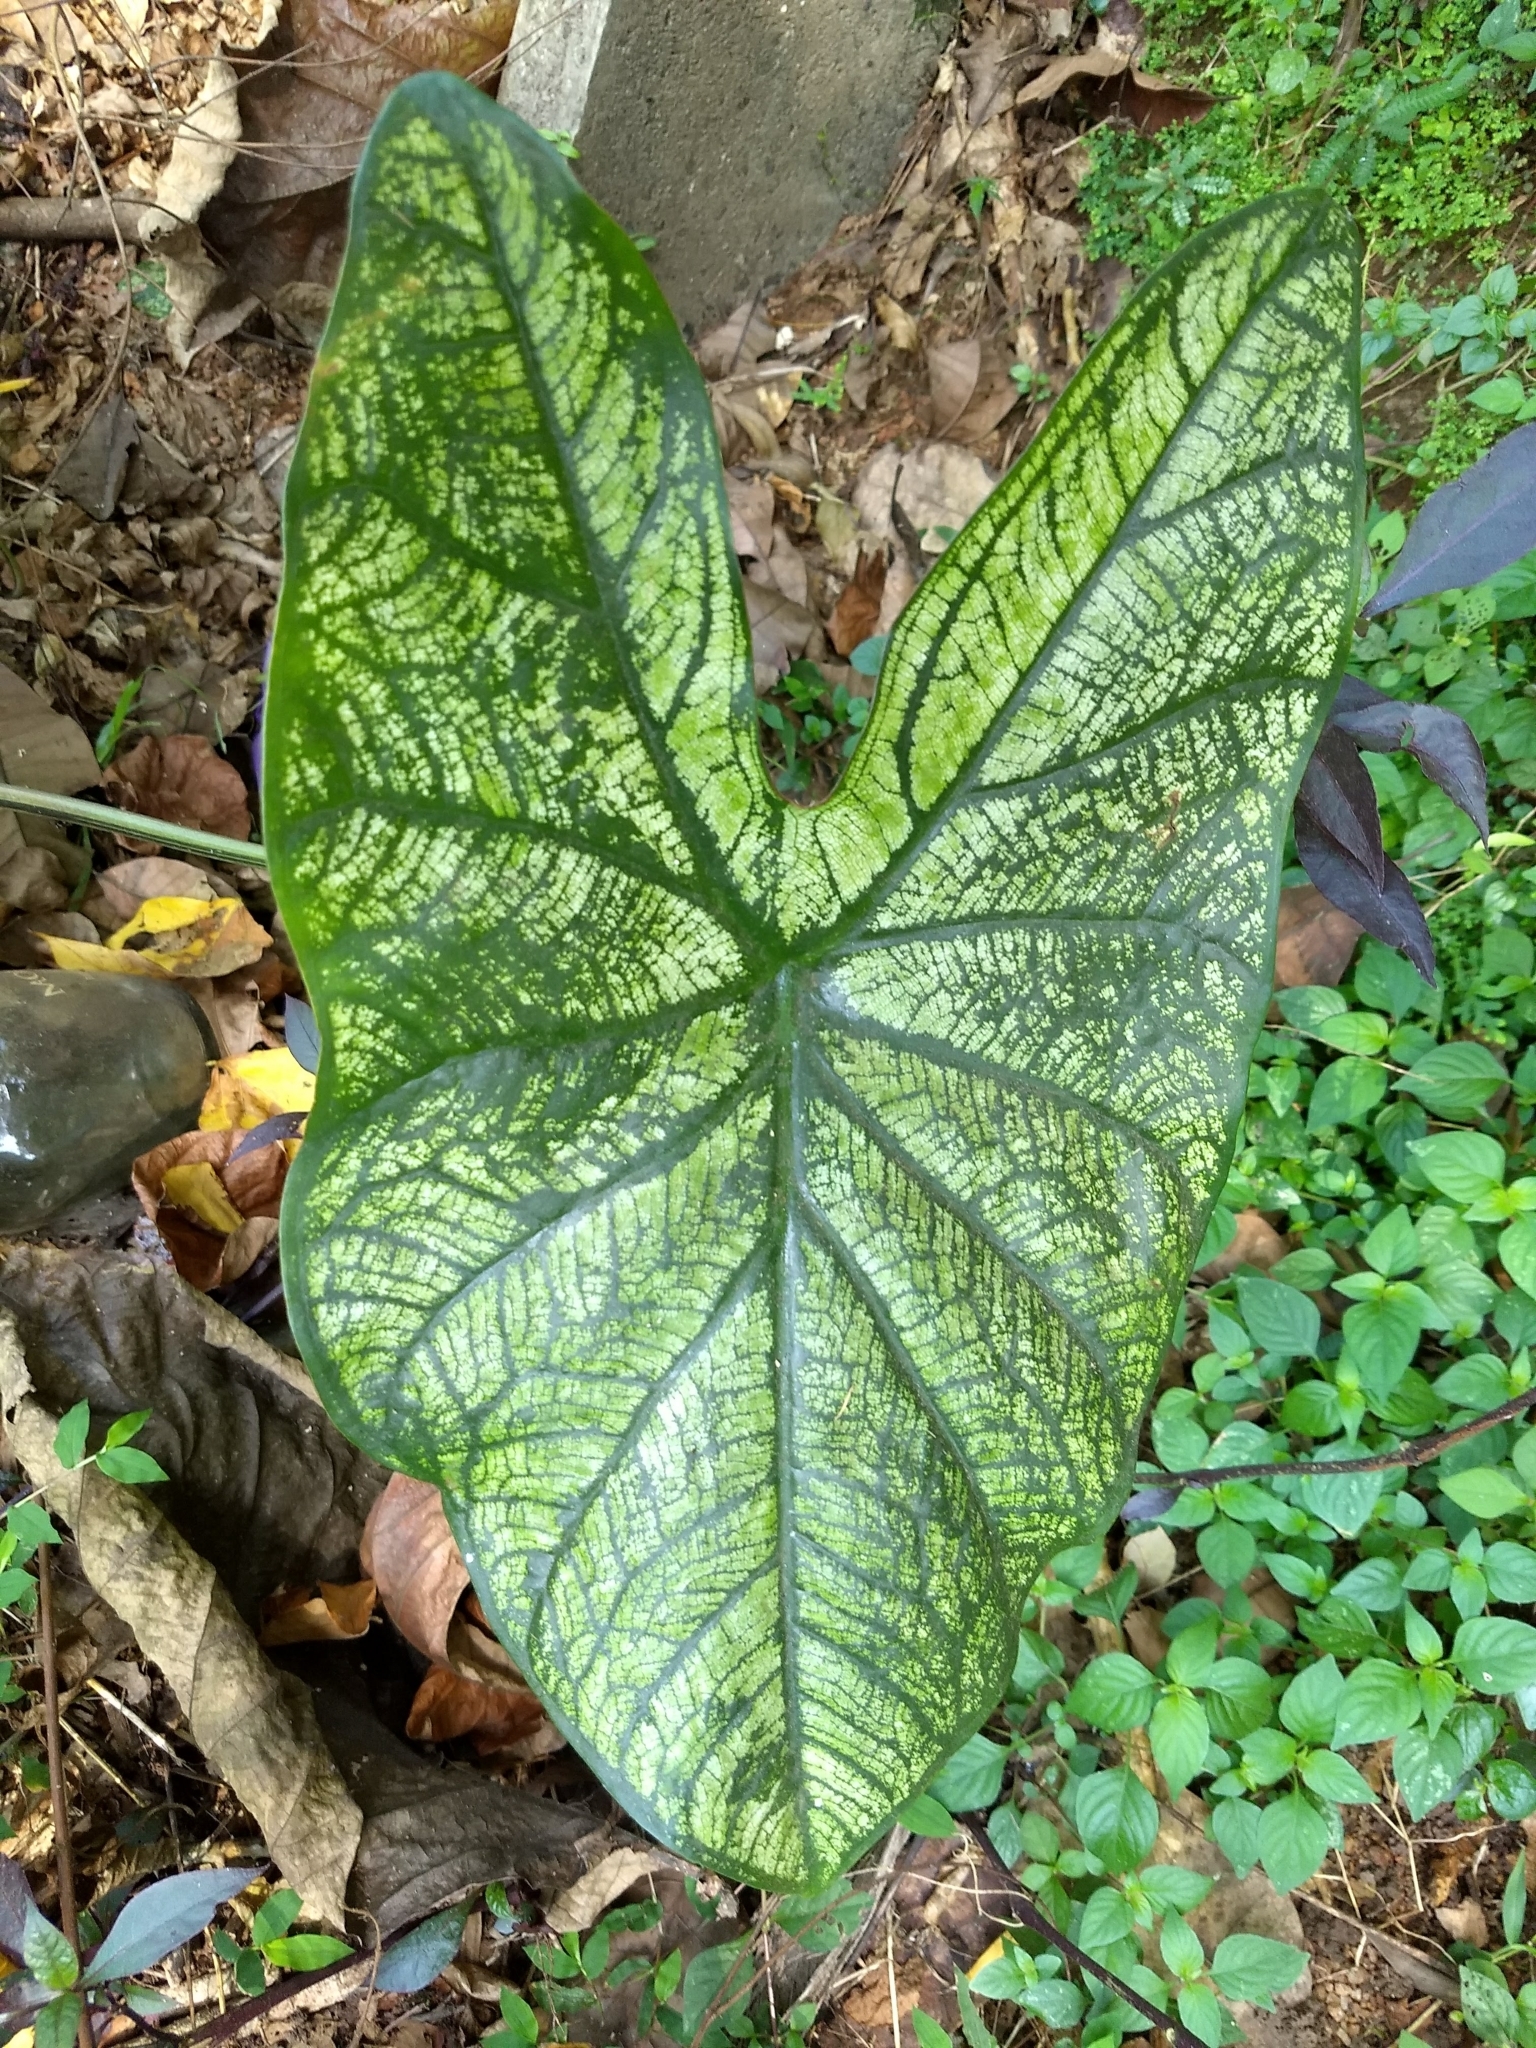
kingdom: Plantae
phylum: Tracheophyta
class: Liliopsida
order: Alismatales
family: Araceae
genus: Caladium
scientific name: Caladium bicolor
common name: Artist's pallet
